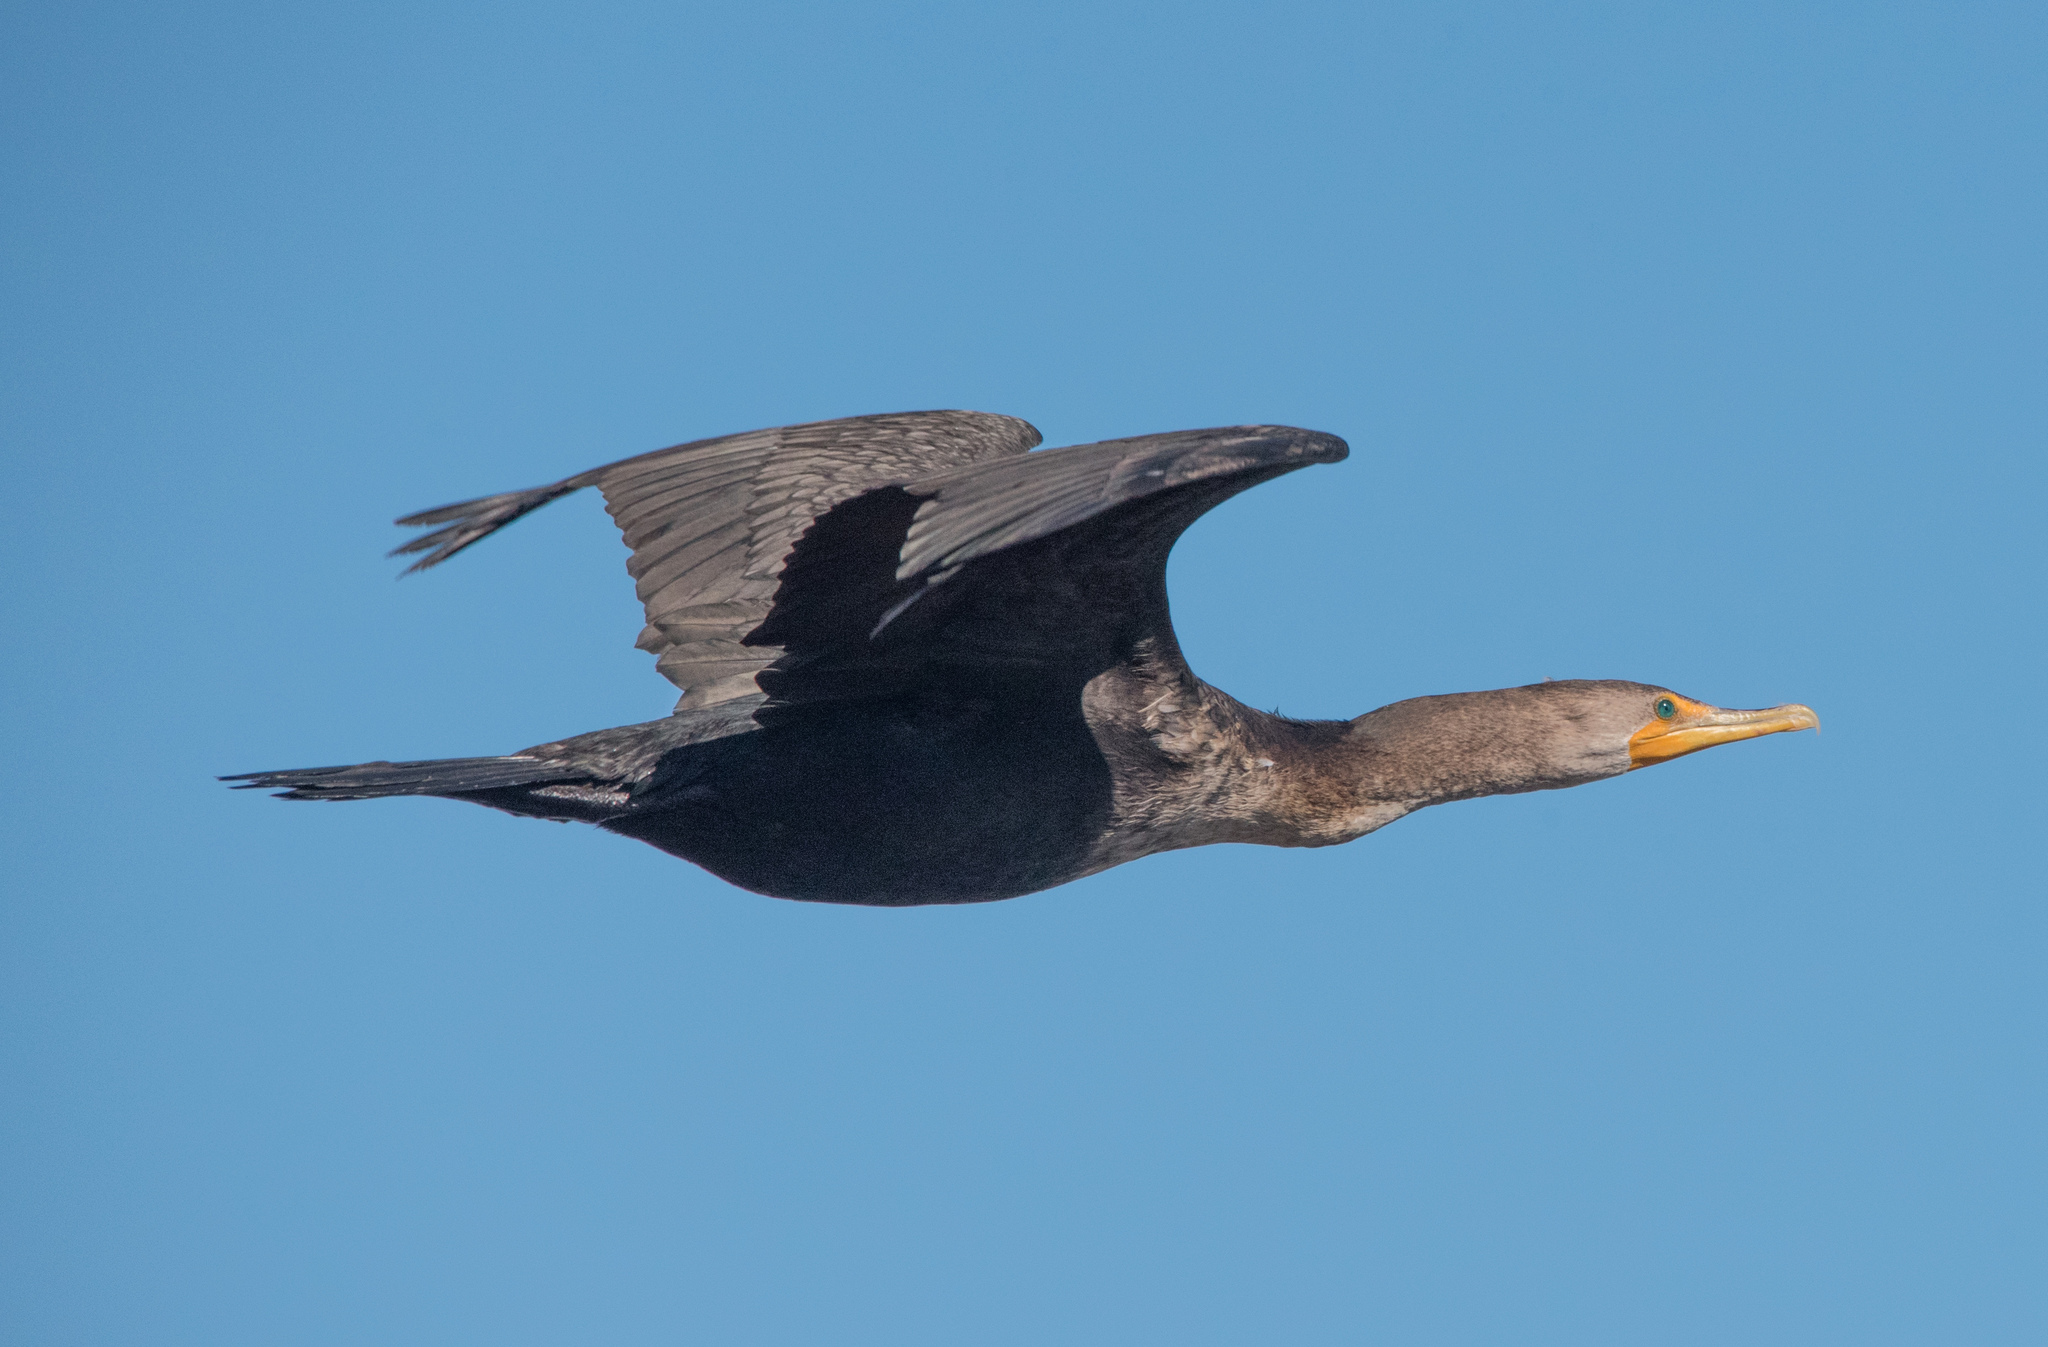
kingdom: Animalia
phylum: Chordata
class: Aves
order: Suliformes
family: Phalacrocoracidae
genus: Phalacrocorax
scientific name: Phalacrocorax auritus
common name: Double-crested cormorant
